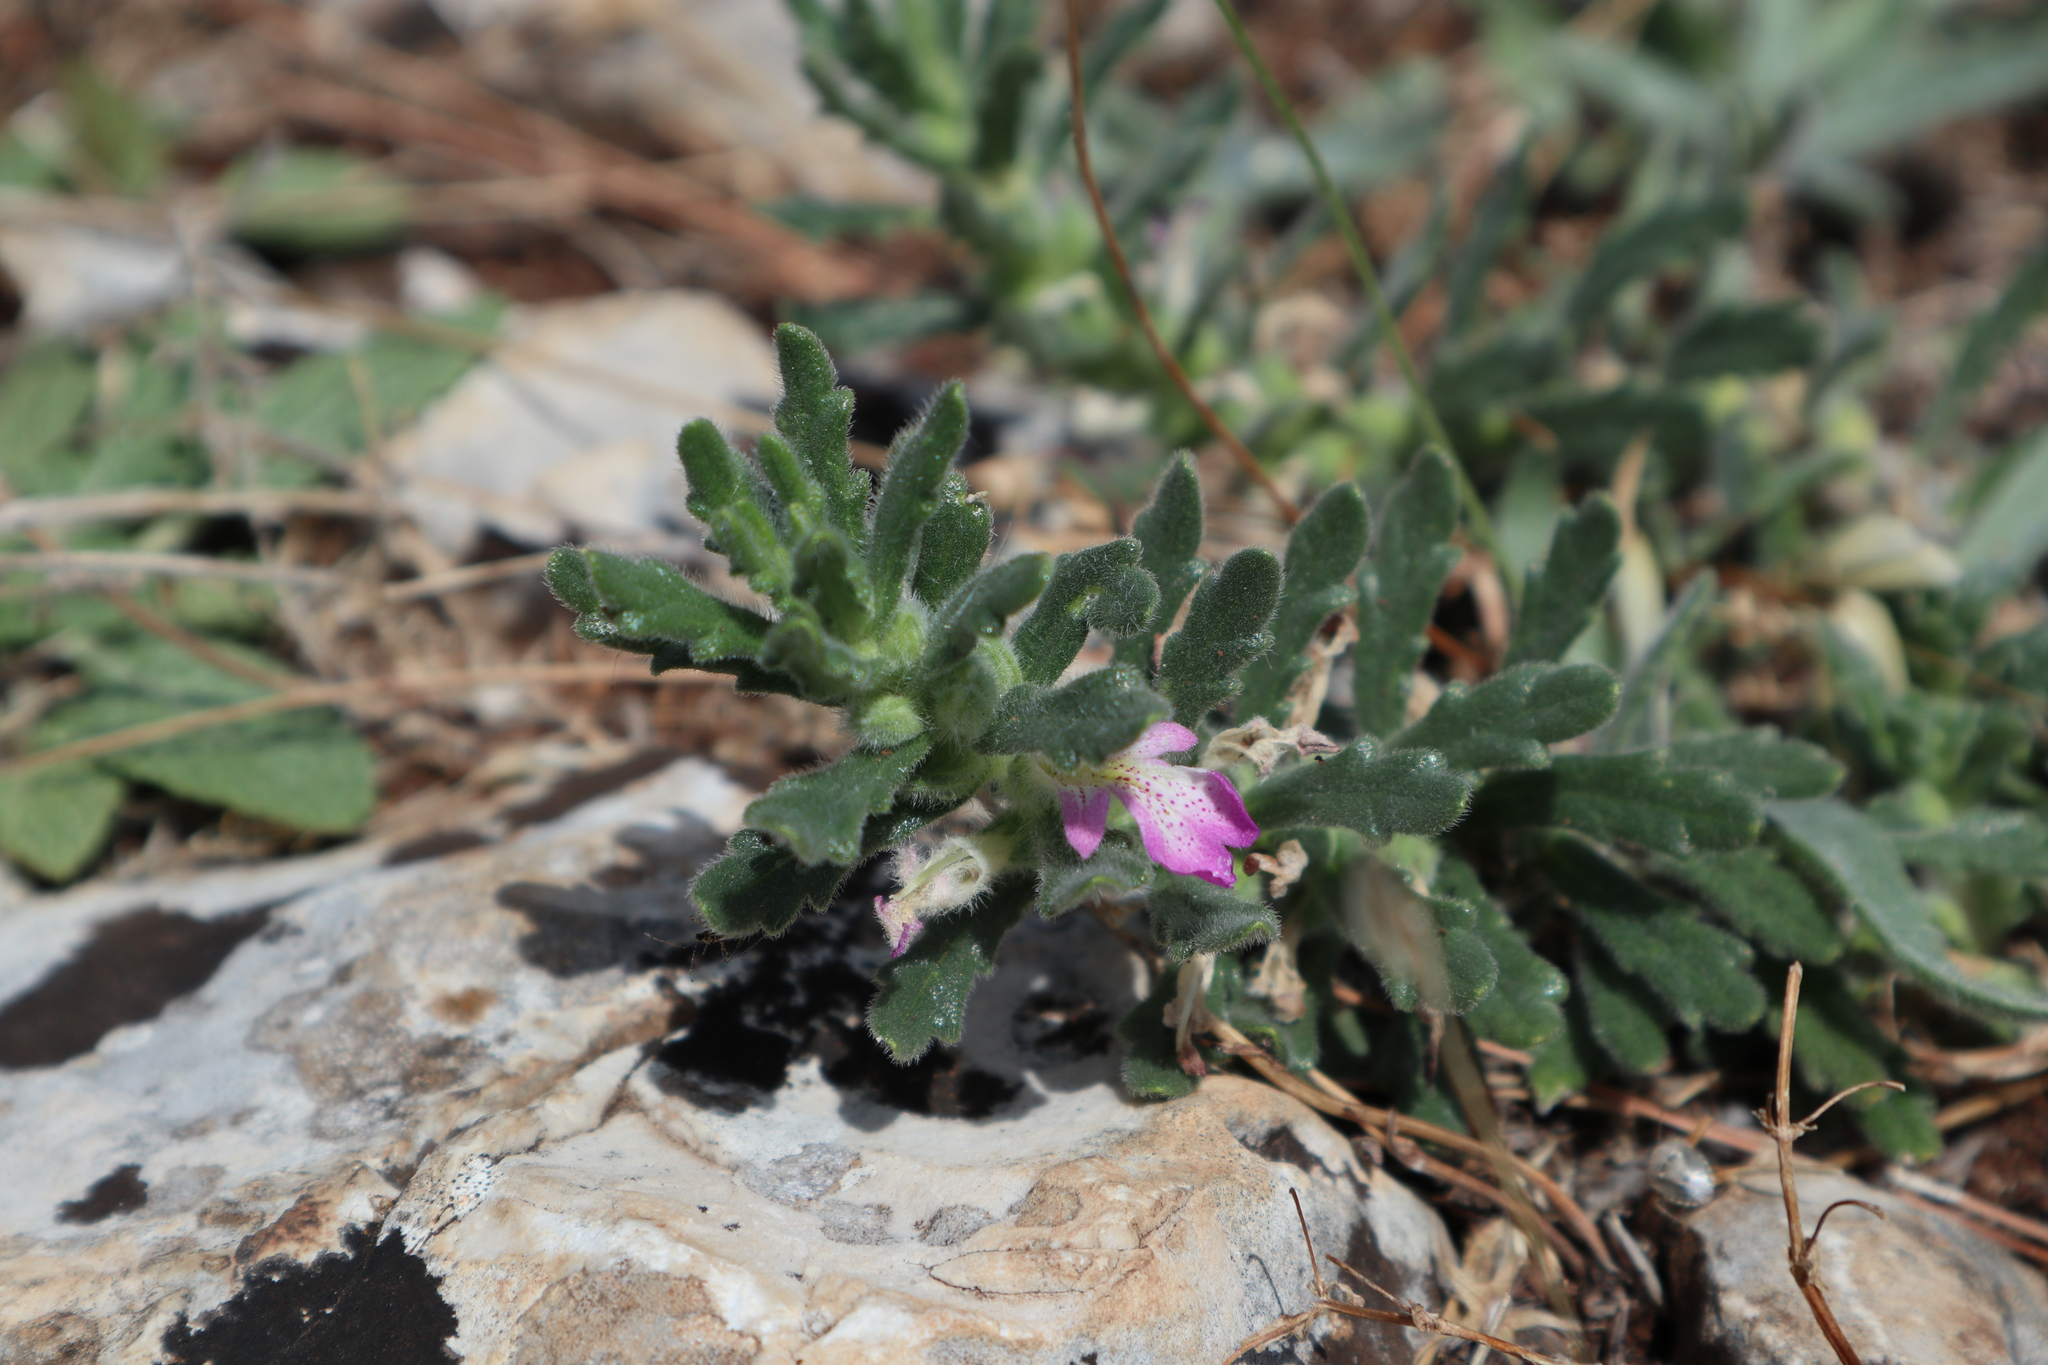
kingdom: Plantae
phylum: Tracheophyta
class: Magnoliopsida
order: Lamiales
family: Lamiaceae
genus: Ajuga
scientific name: Ajuga iva
